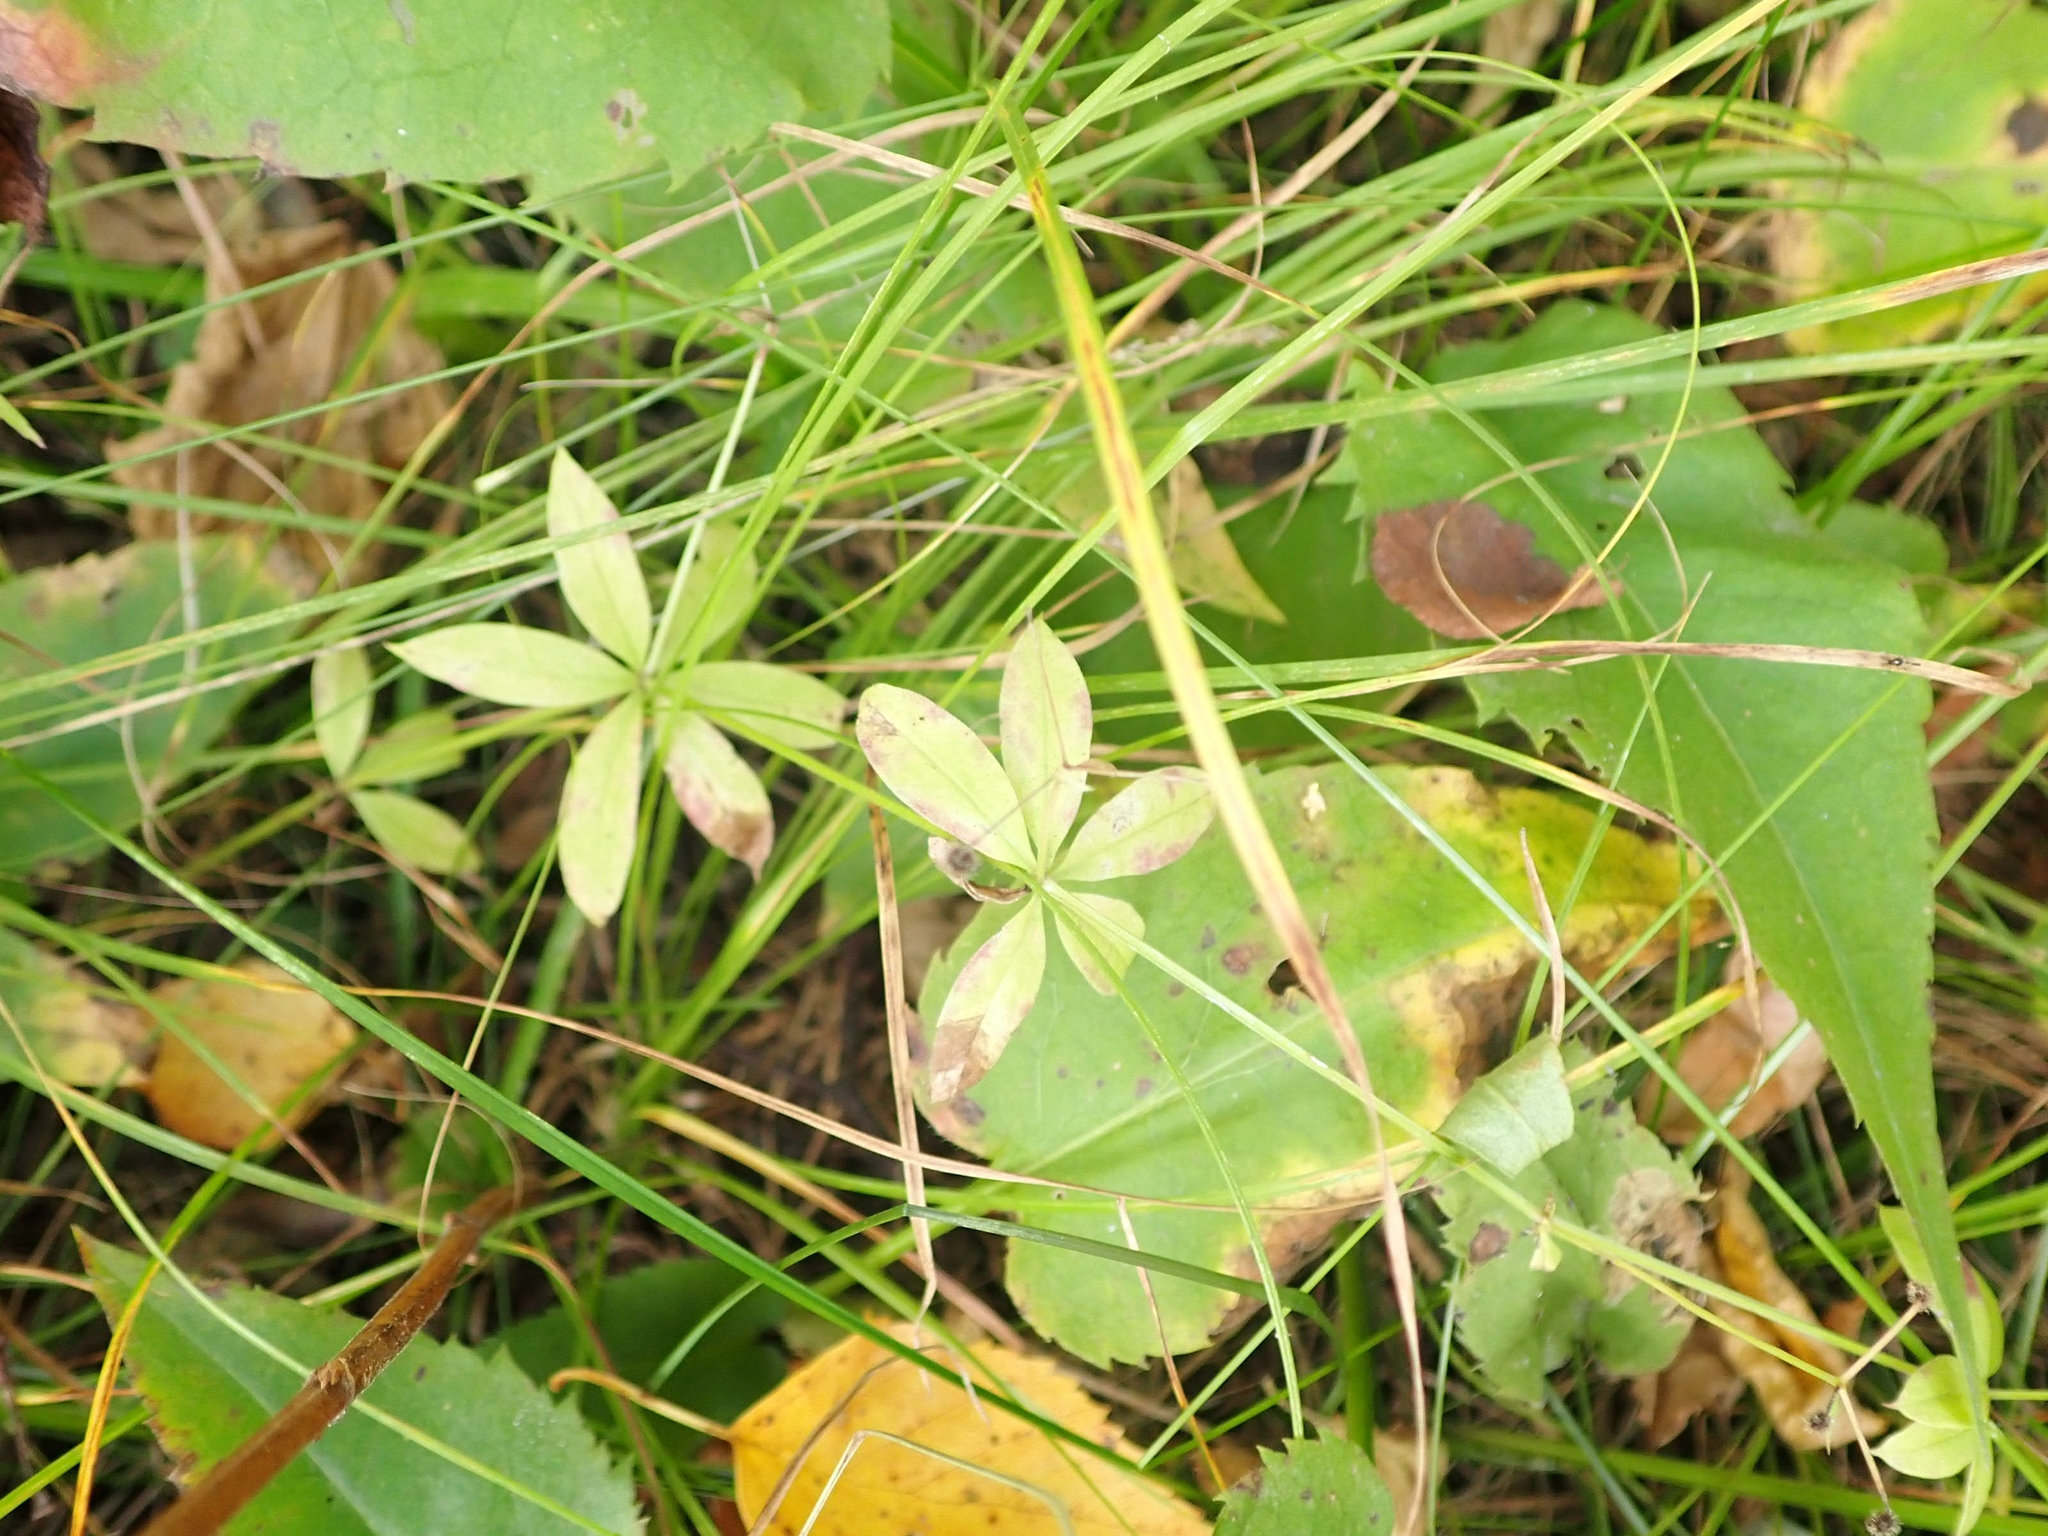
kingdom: Plantae
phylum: Tracheophyta
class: Magnoliopsida
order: Gentianales
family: Rubiaceae
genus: Galium
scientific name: Galium triflorum
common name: Fragrant bedstraw
